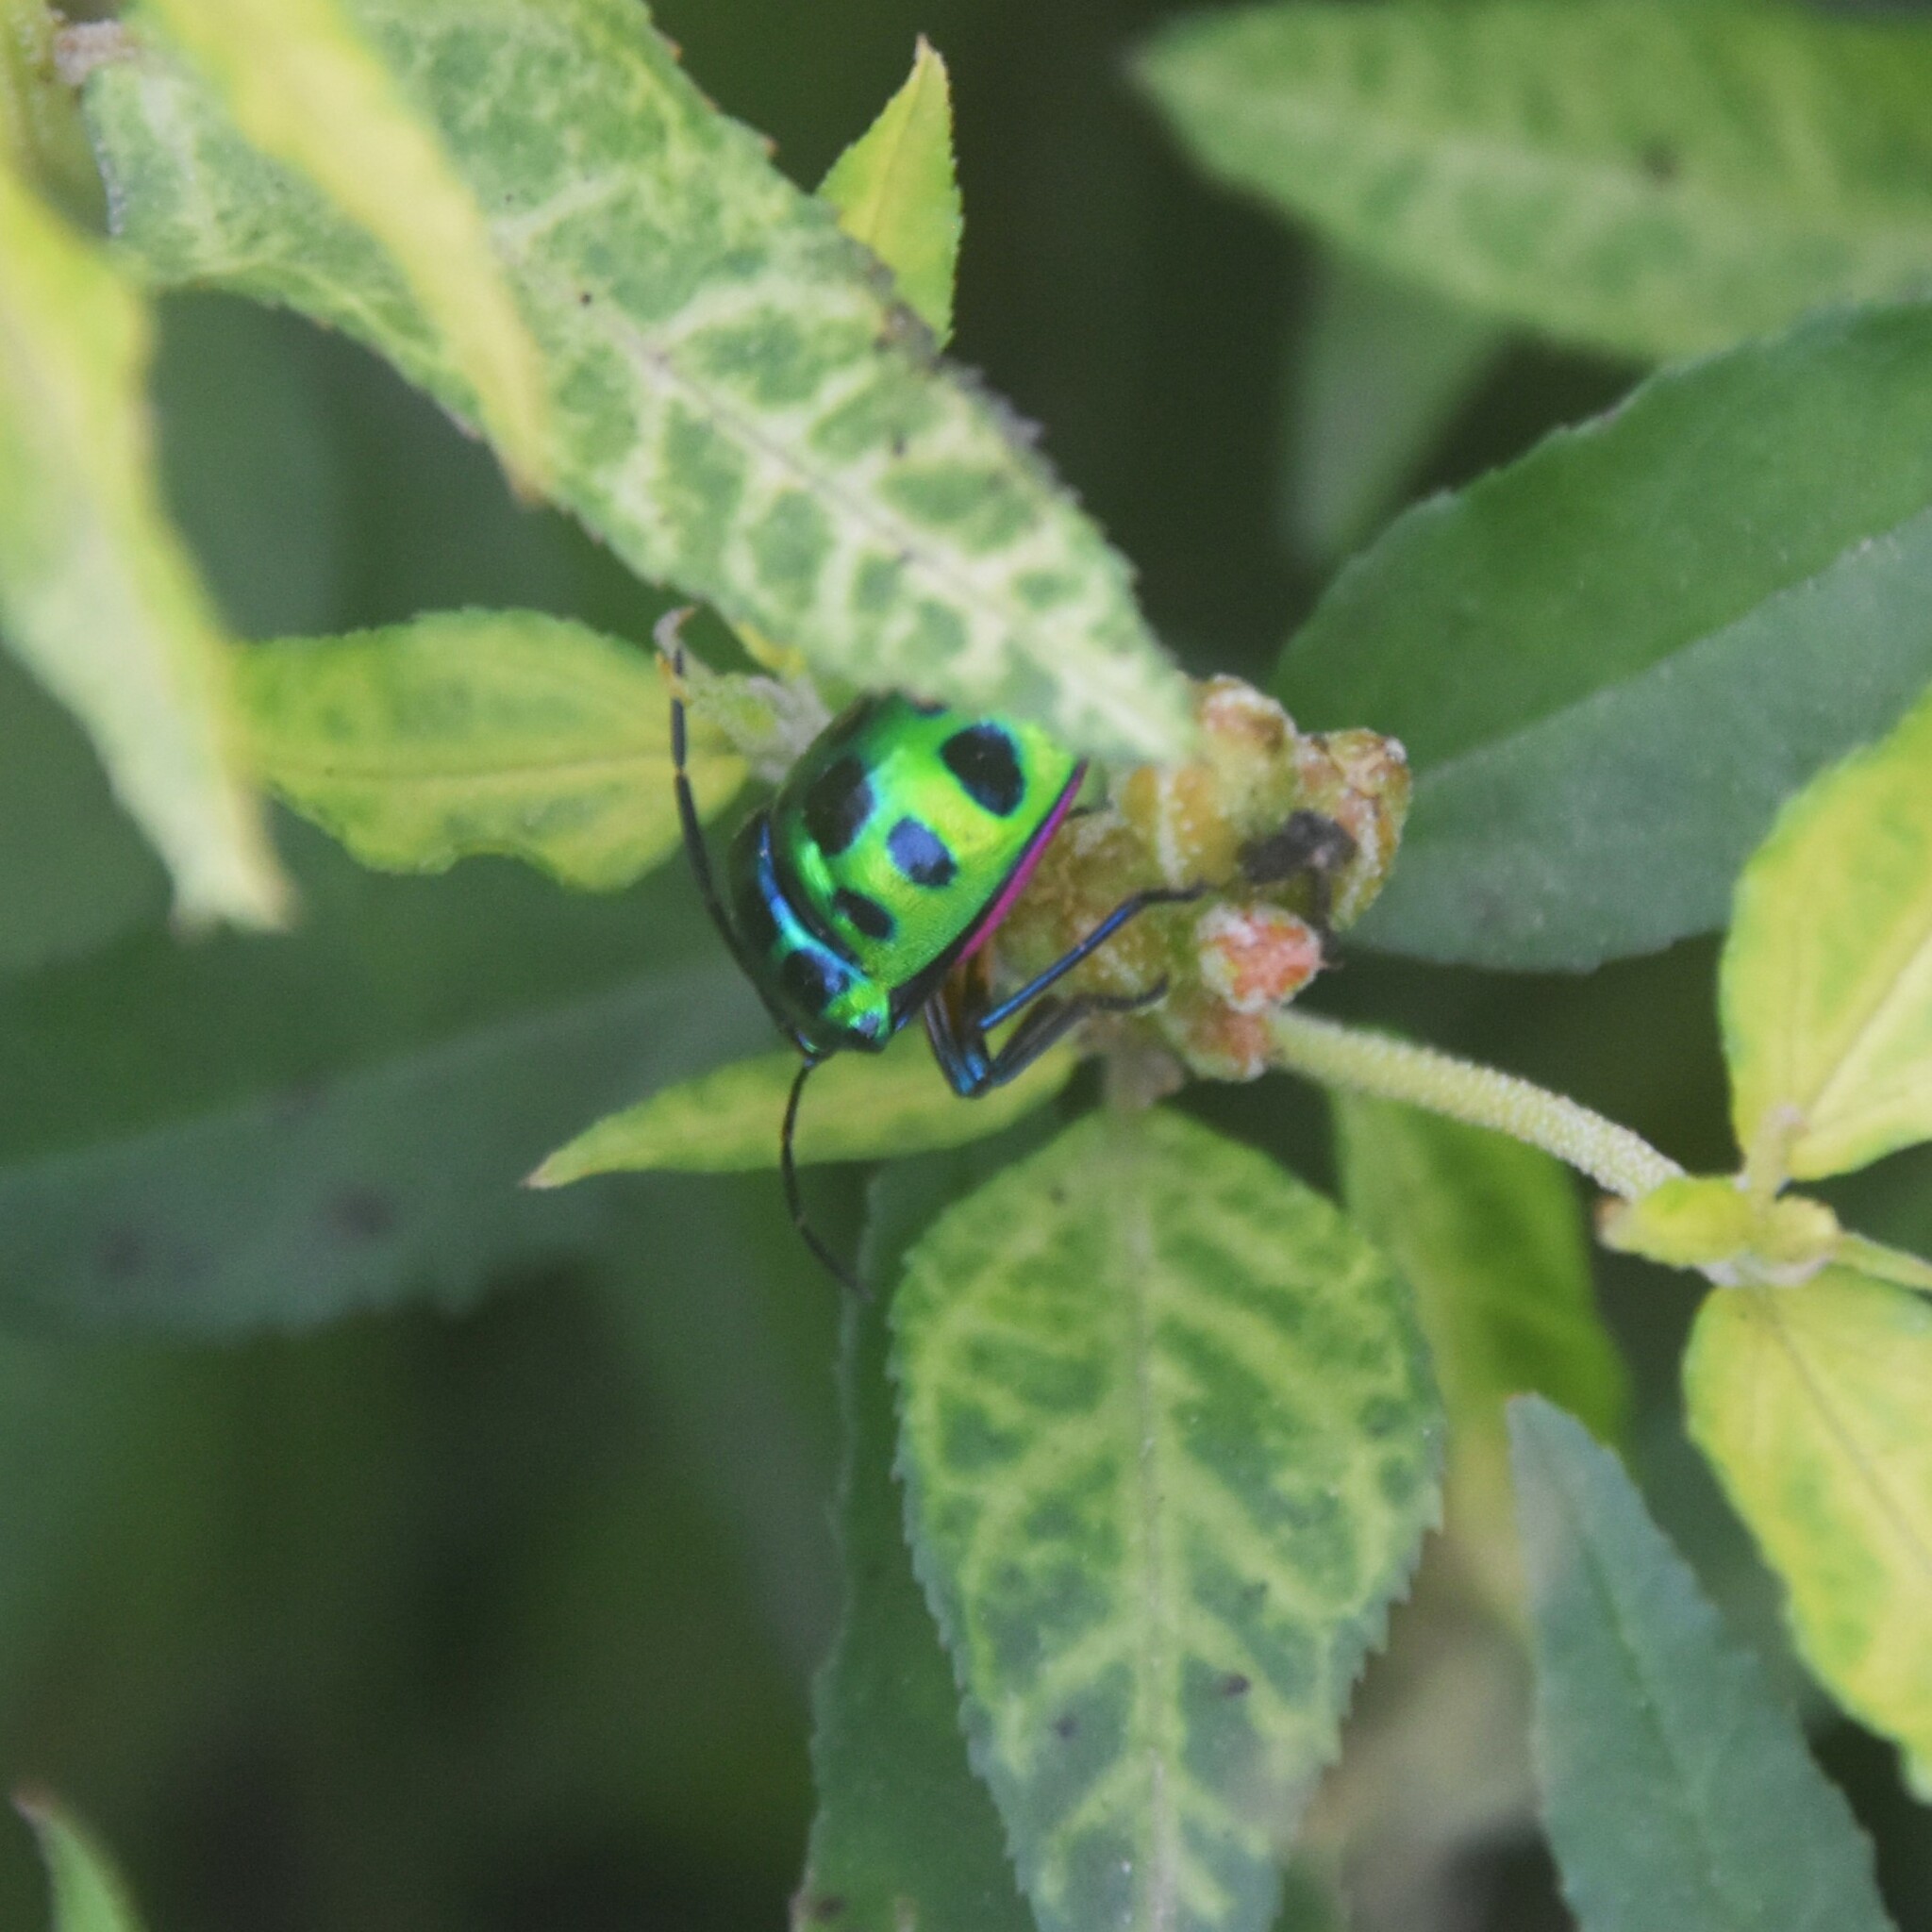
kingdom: Animalia
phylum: Arthropoda
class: Insecta
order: Hemiptera
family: Scutelleridae
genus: Chrysocoris
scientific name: Chrysocoris stollii
